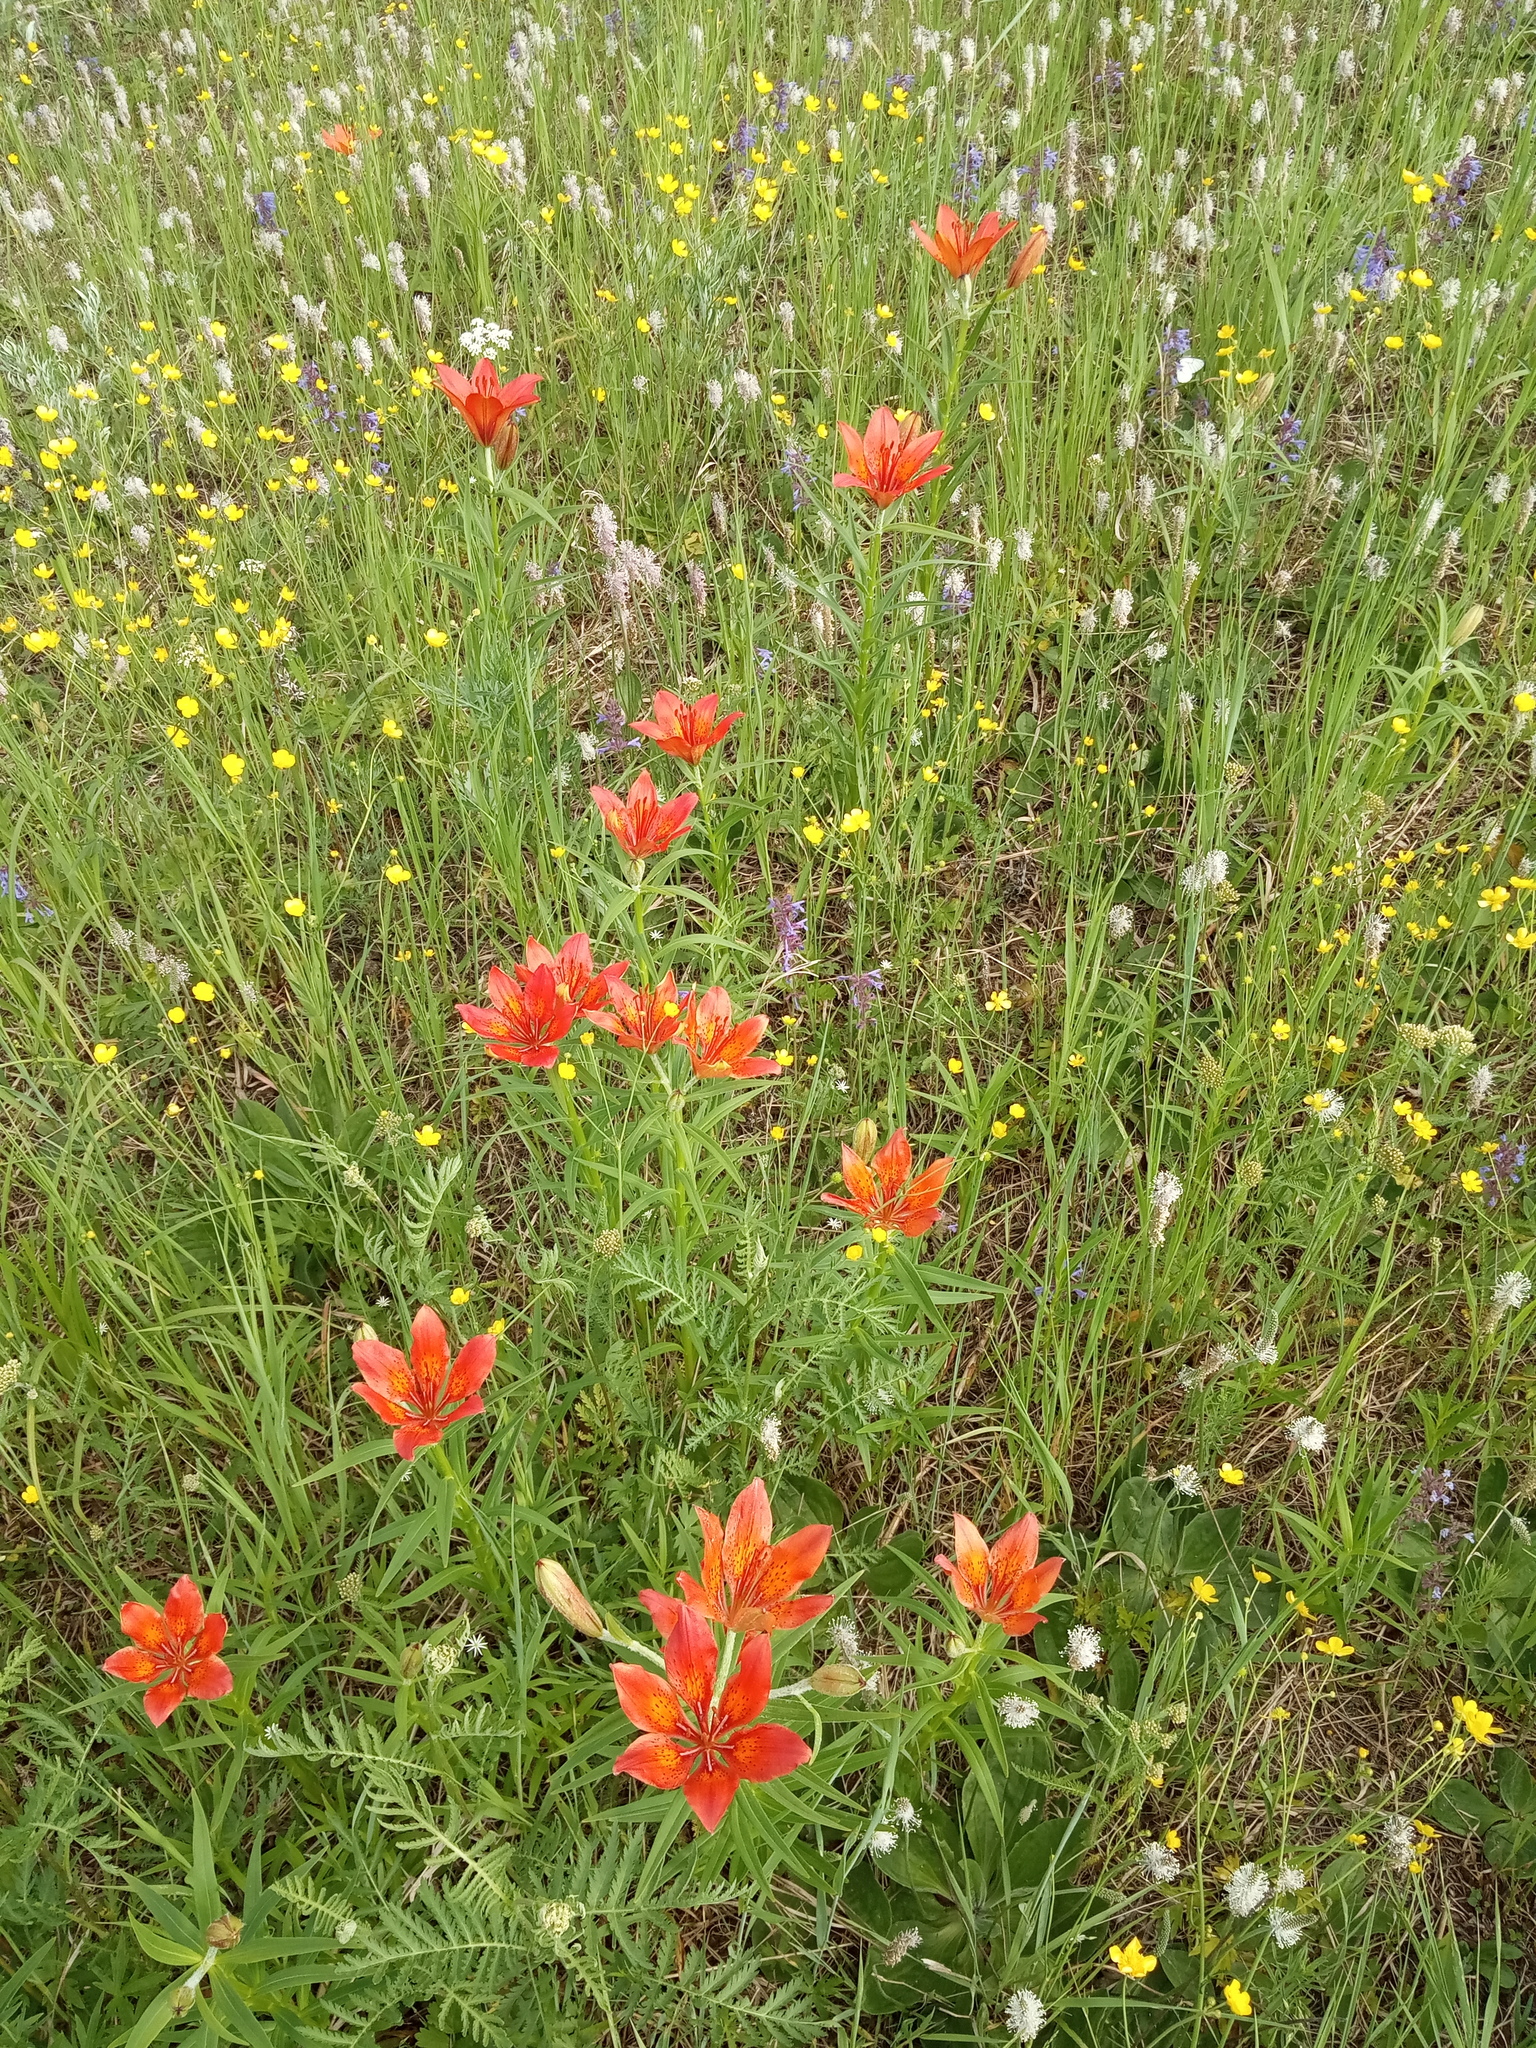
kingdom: Plantae
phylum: Tracheophyta
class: Liliopsida
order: Liliales
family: Liliaceae
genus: Lilium
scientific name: Lilium pensylvanicum
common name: Candlestick lily
